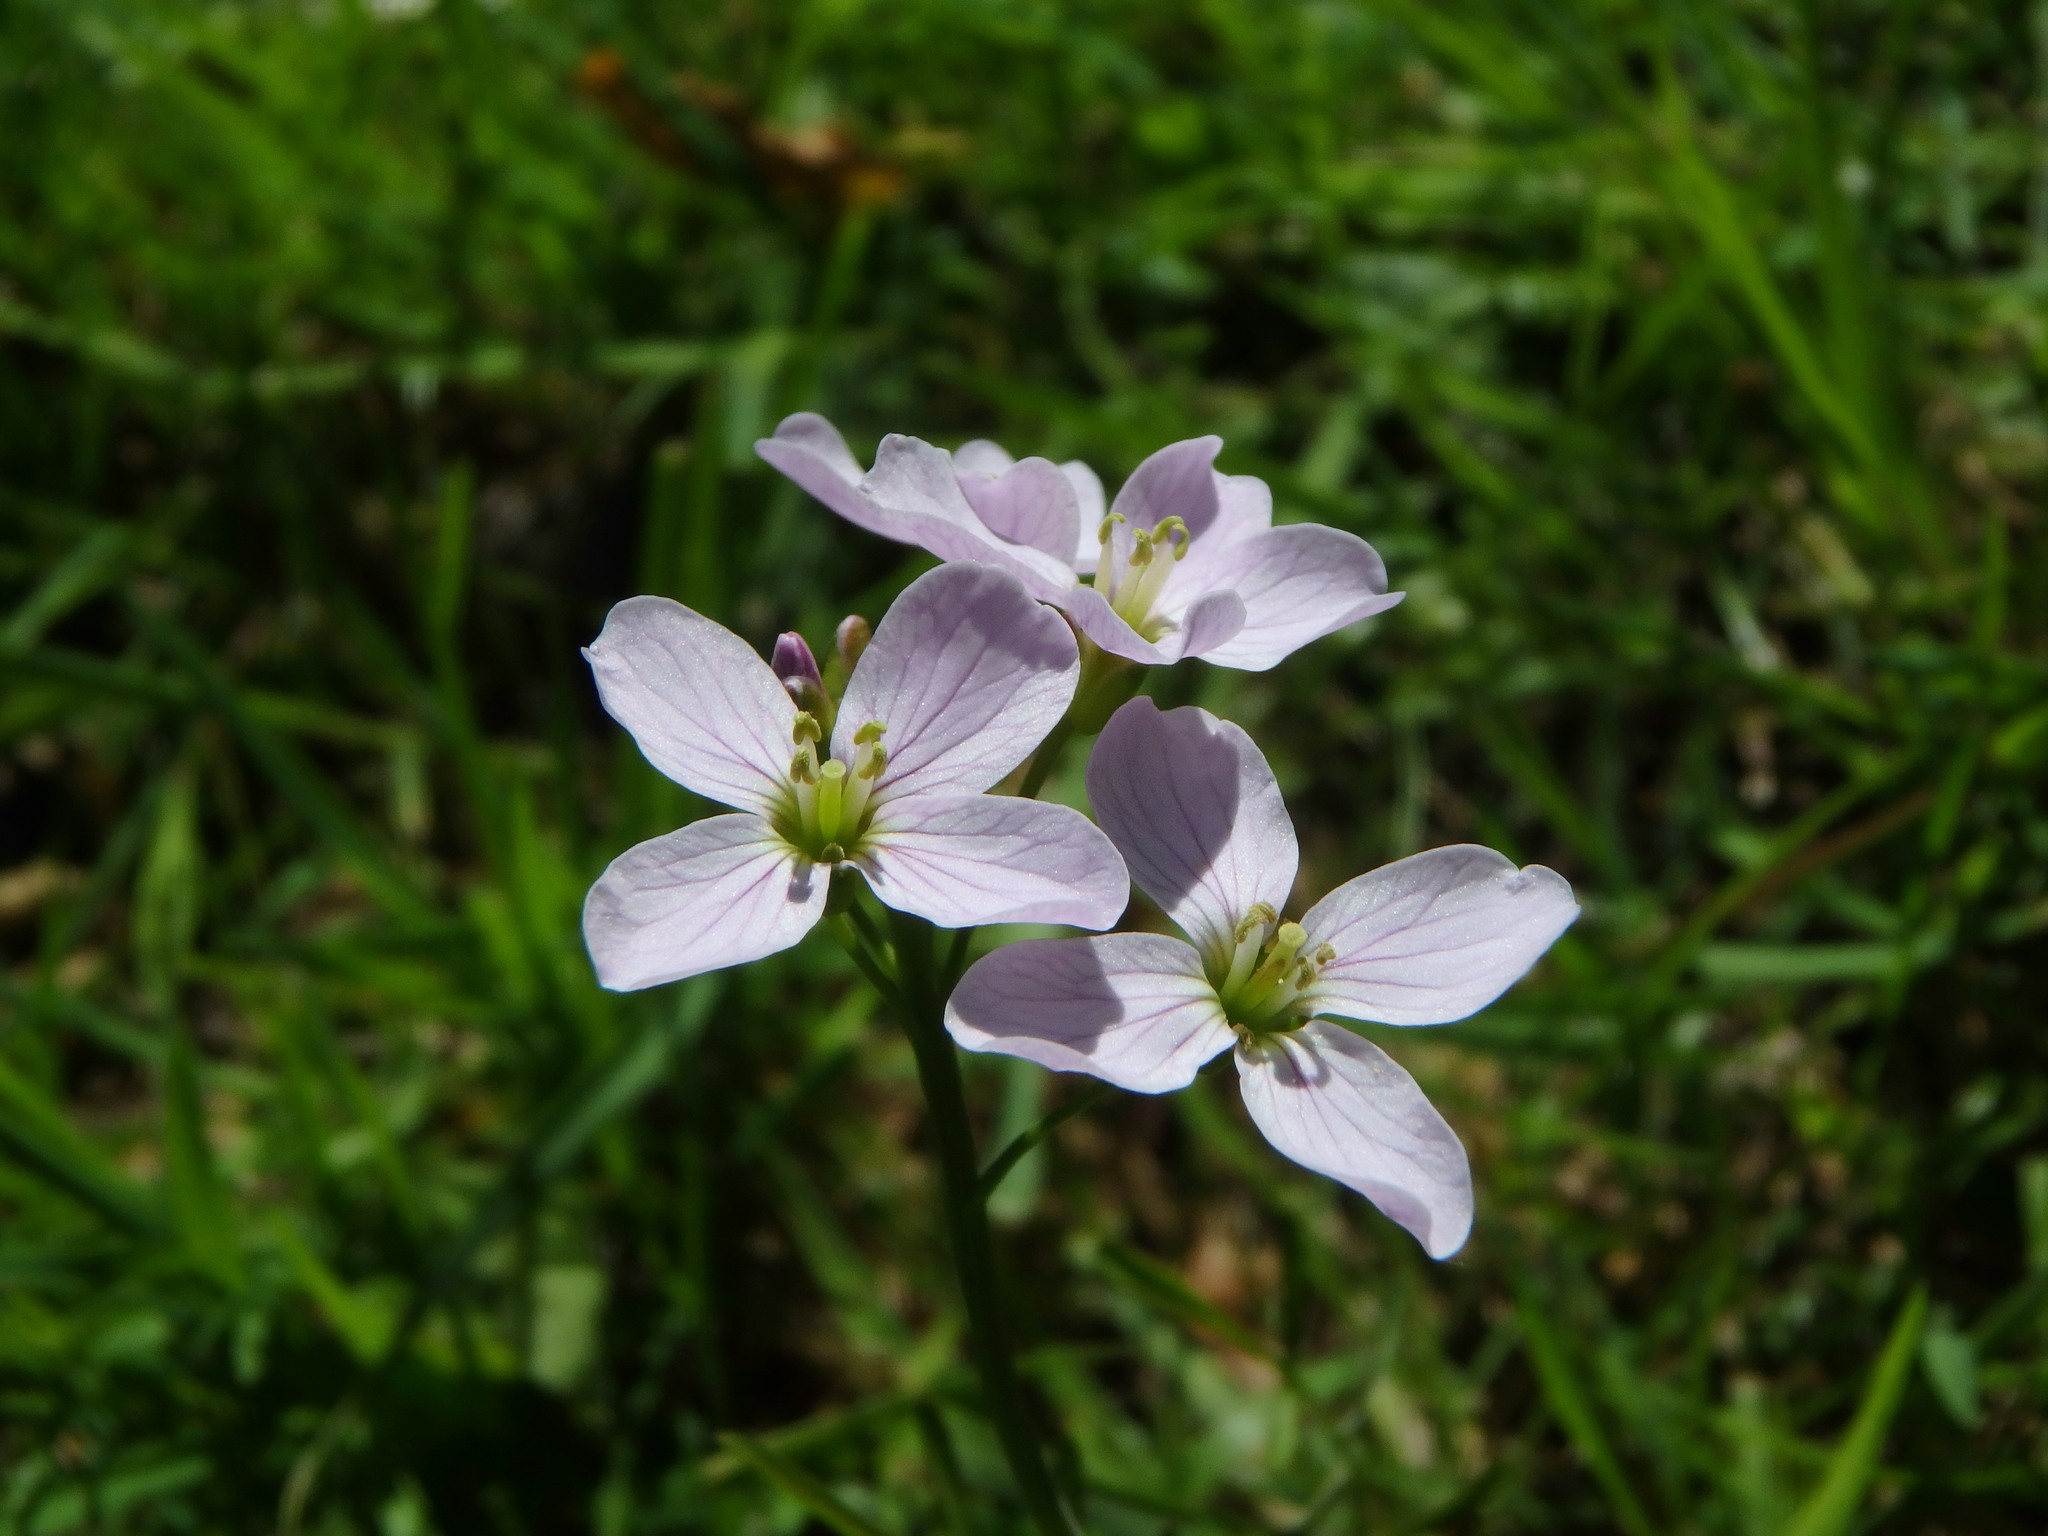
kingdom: Plantae
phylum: Tracheophyta
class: Magnoliopsida
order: Brassicales
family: Brassicaceae
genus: Cardamine
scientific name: Cardamine pratensis
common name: Cuckoo flower
